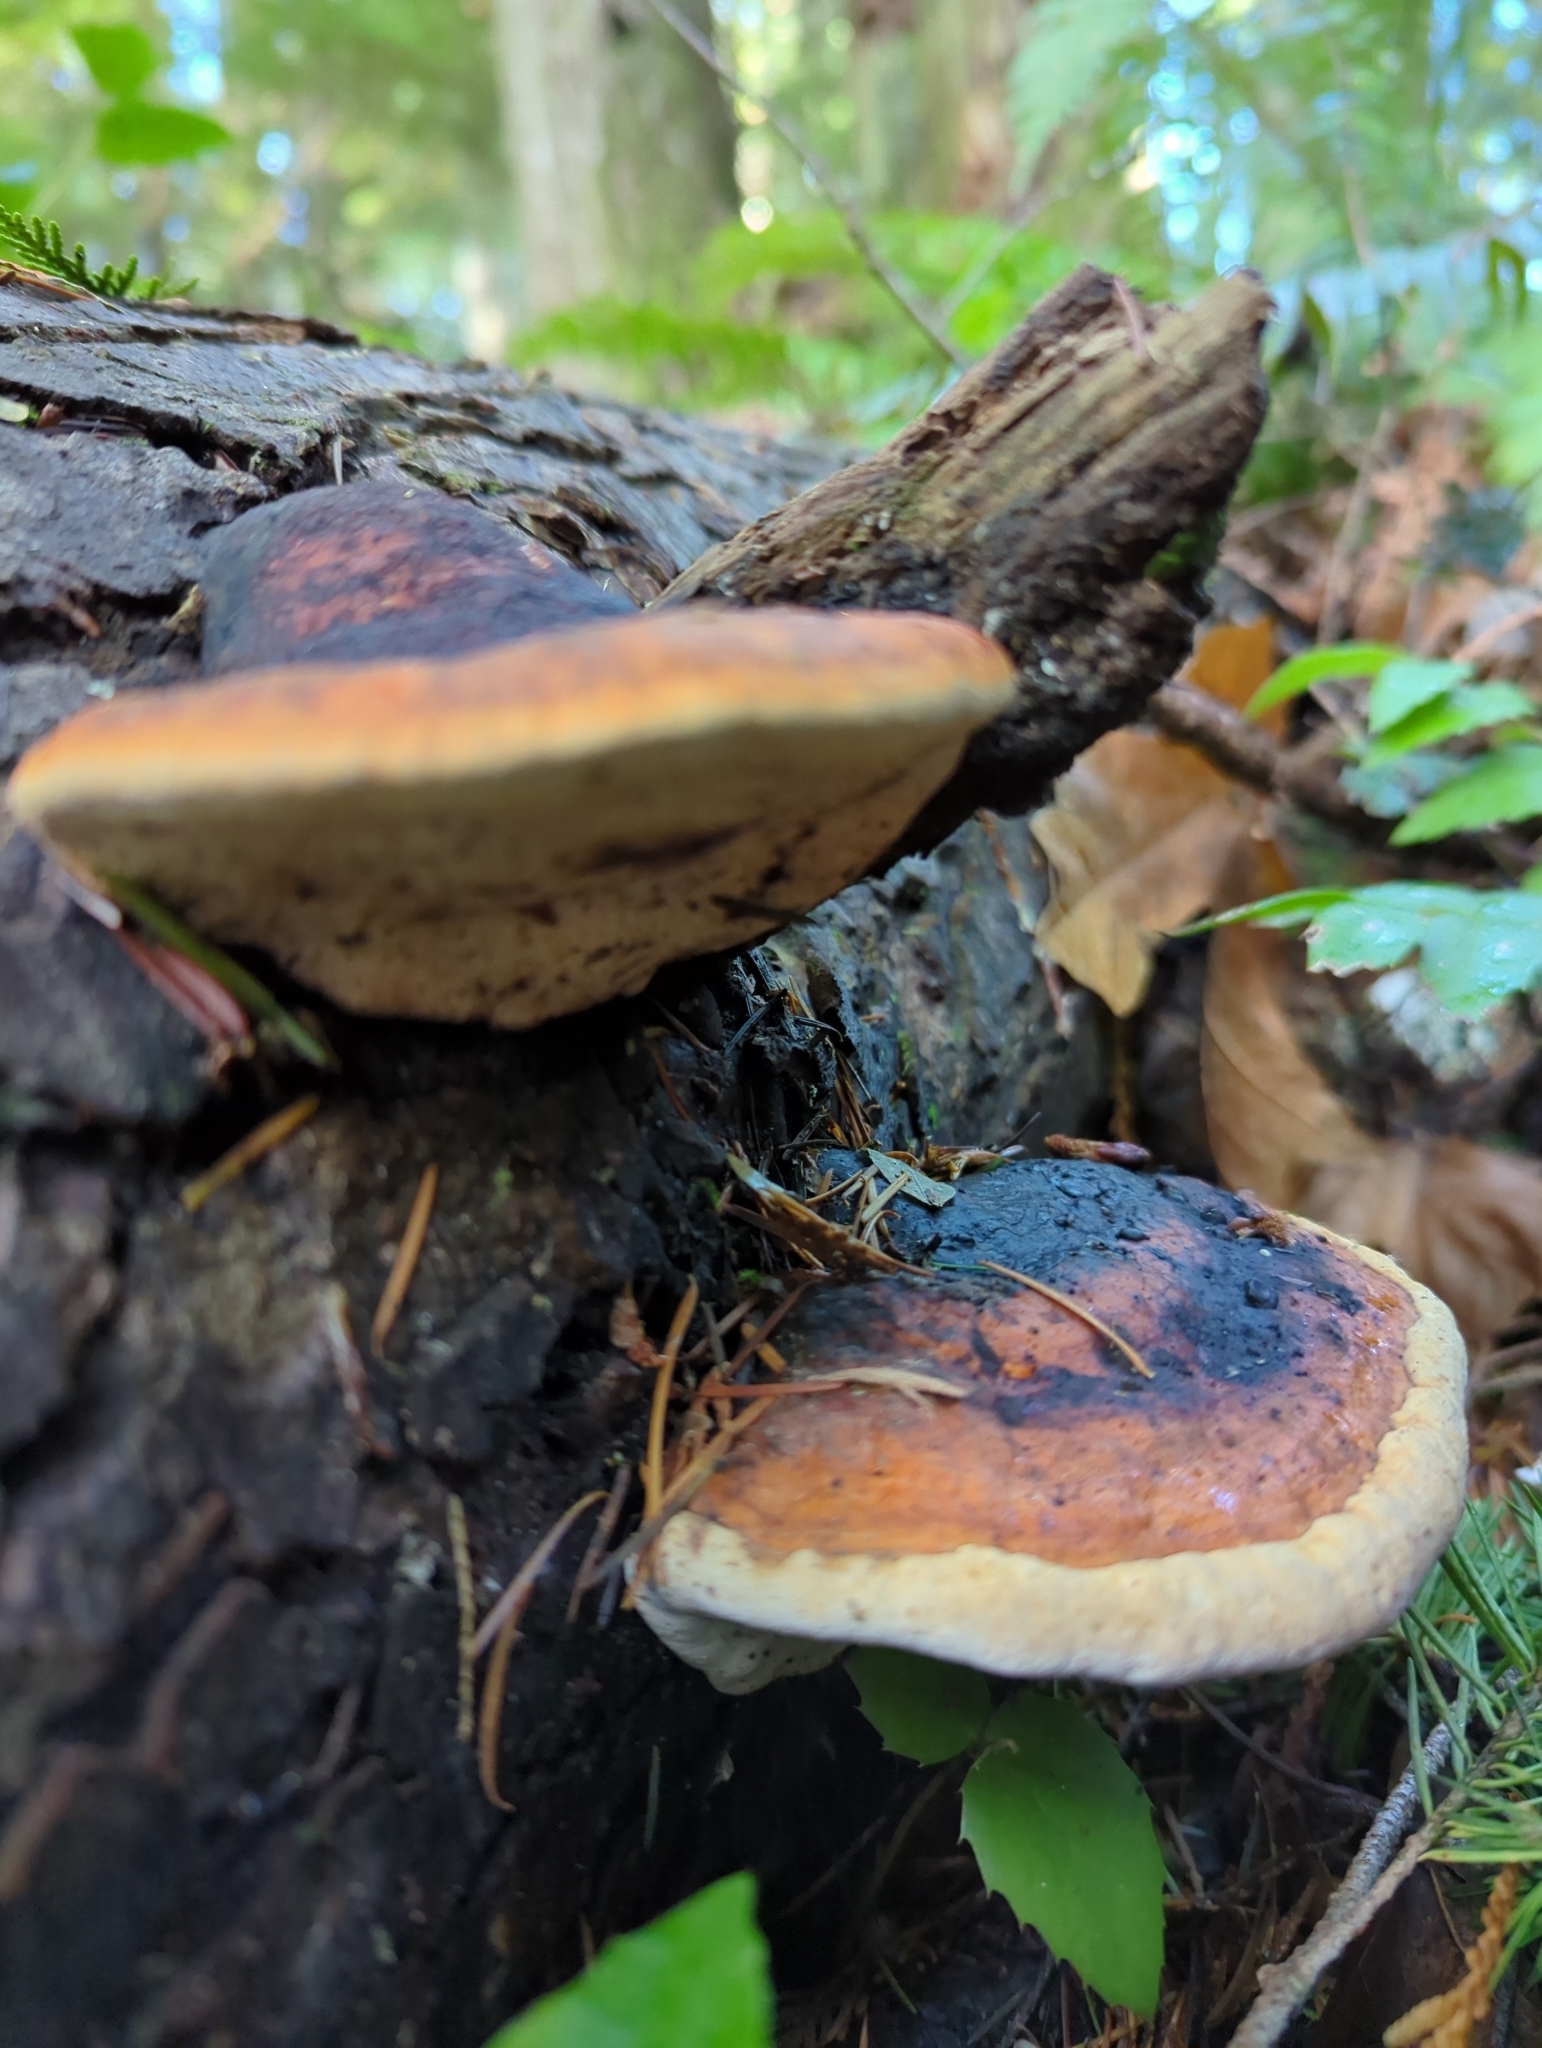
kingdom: Fungi
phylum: Basidiomycota
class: Agaricomycetes
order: Polyporales
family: Fomitopsidaceae
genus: Fomitopsis
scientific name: Fomitopsis mounceae
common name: Northern red belt
